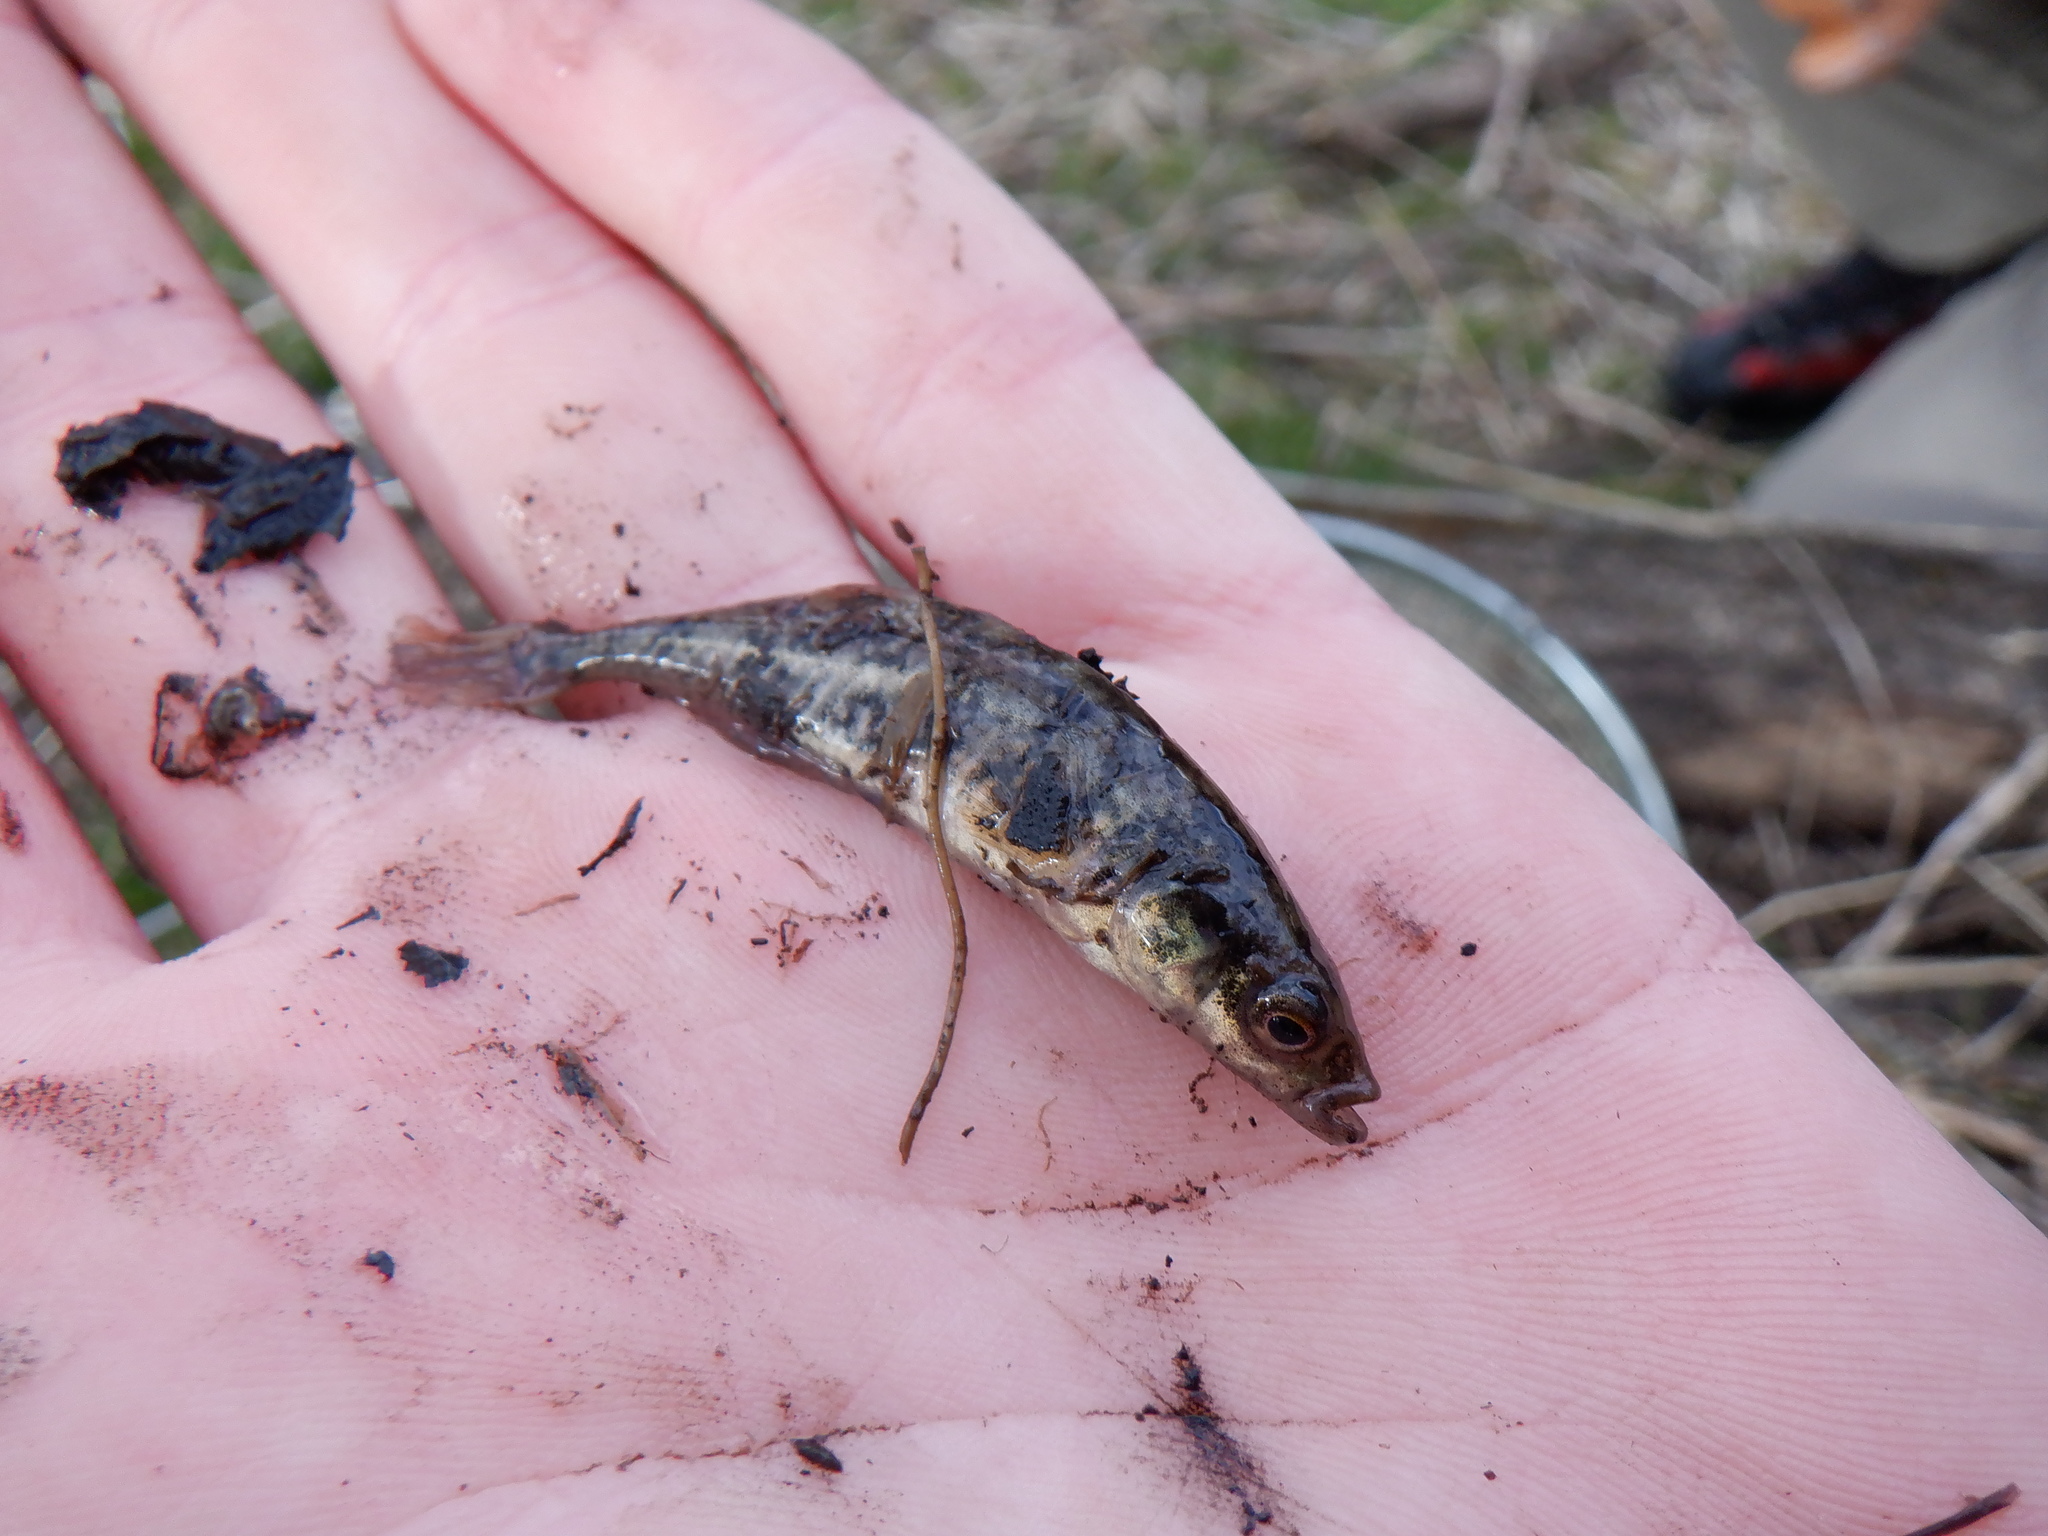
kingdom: Animalia
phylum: Chordata
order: Gasterosteiformes
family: Gasterosteidae
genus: Culaea
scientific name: Culaea inconstans
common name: Brook stickleback
